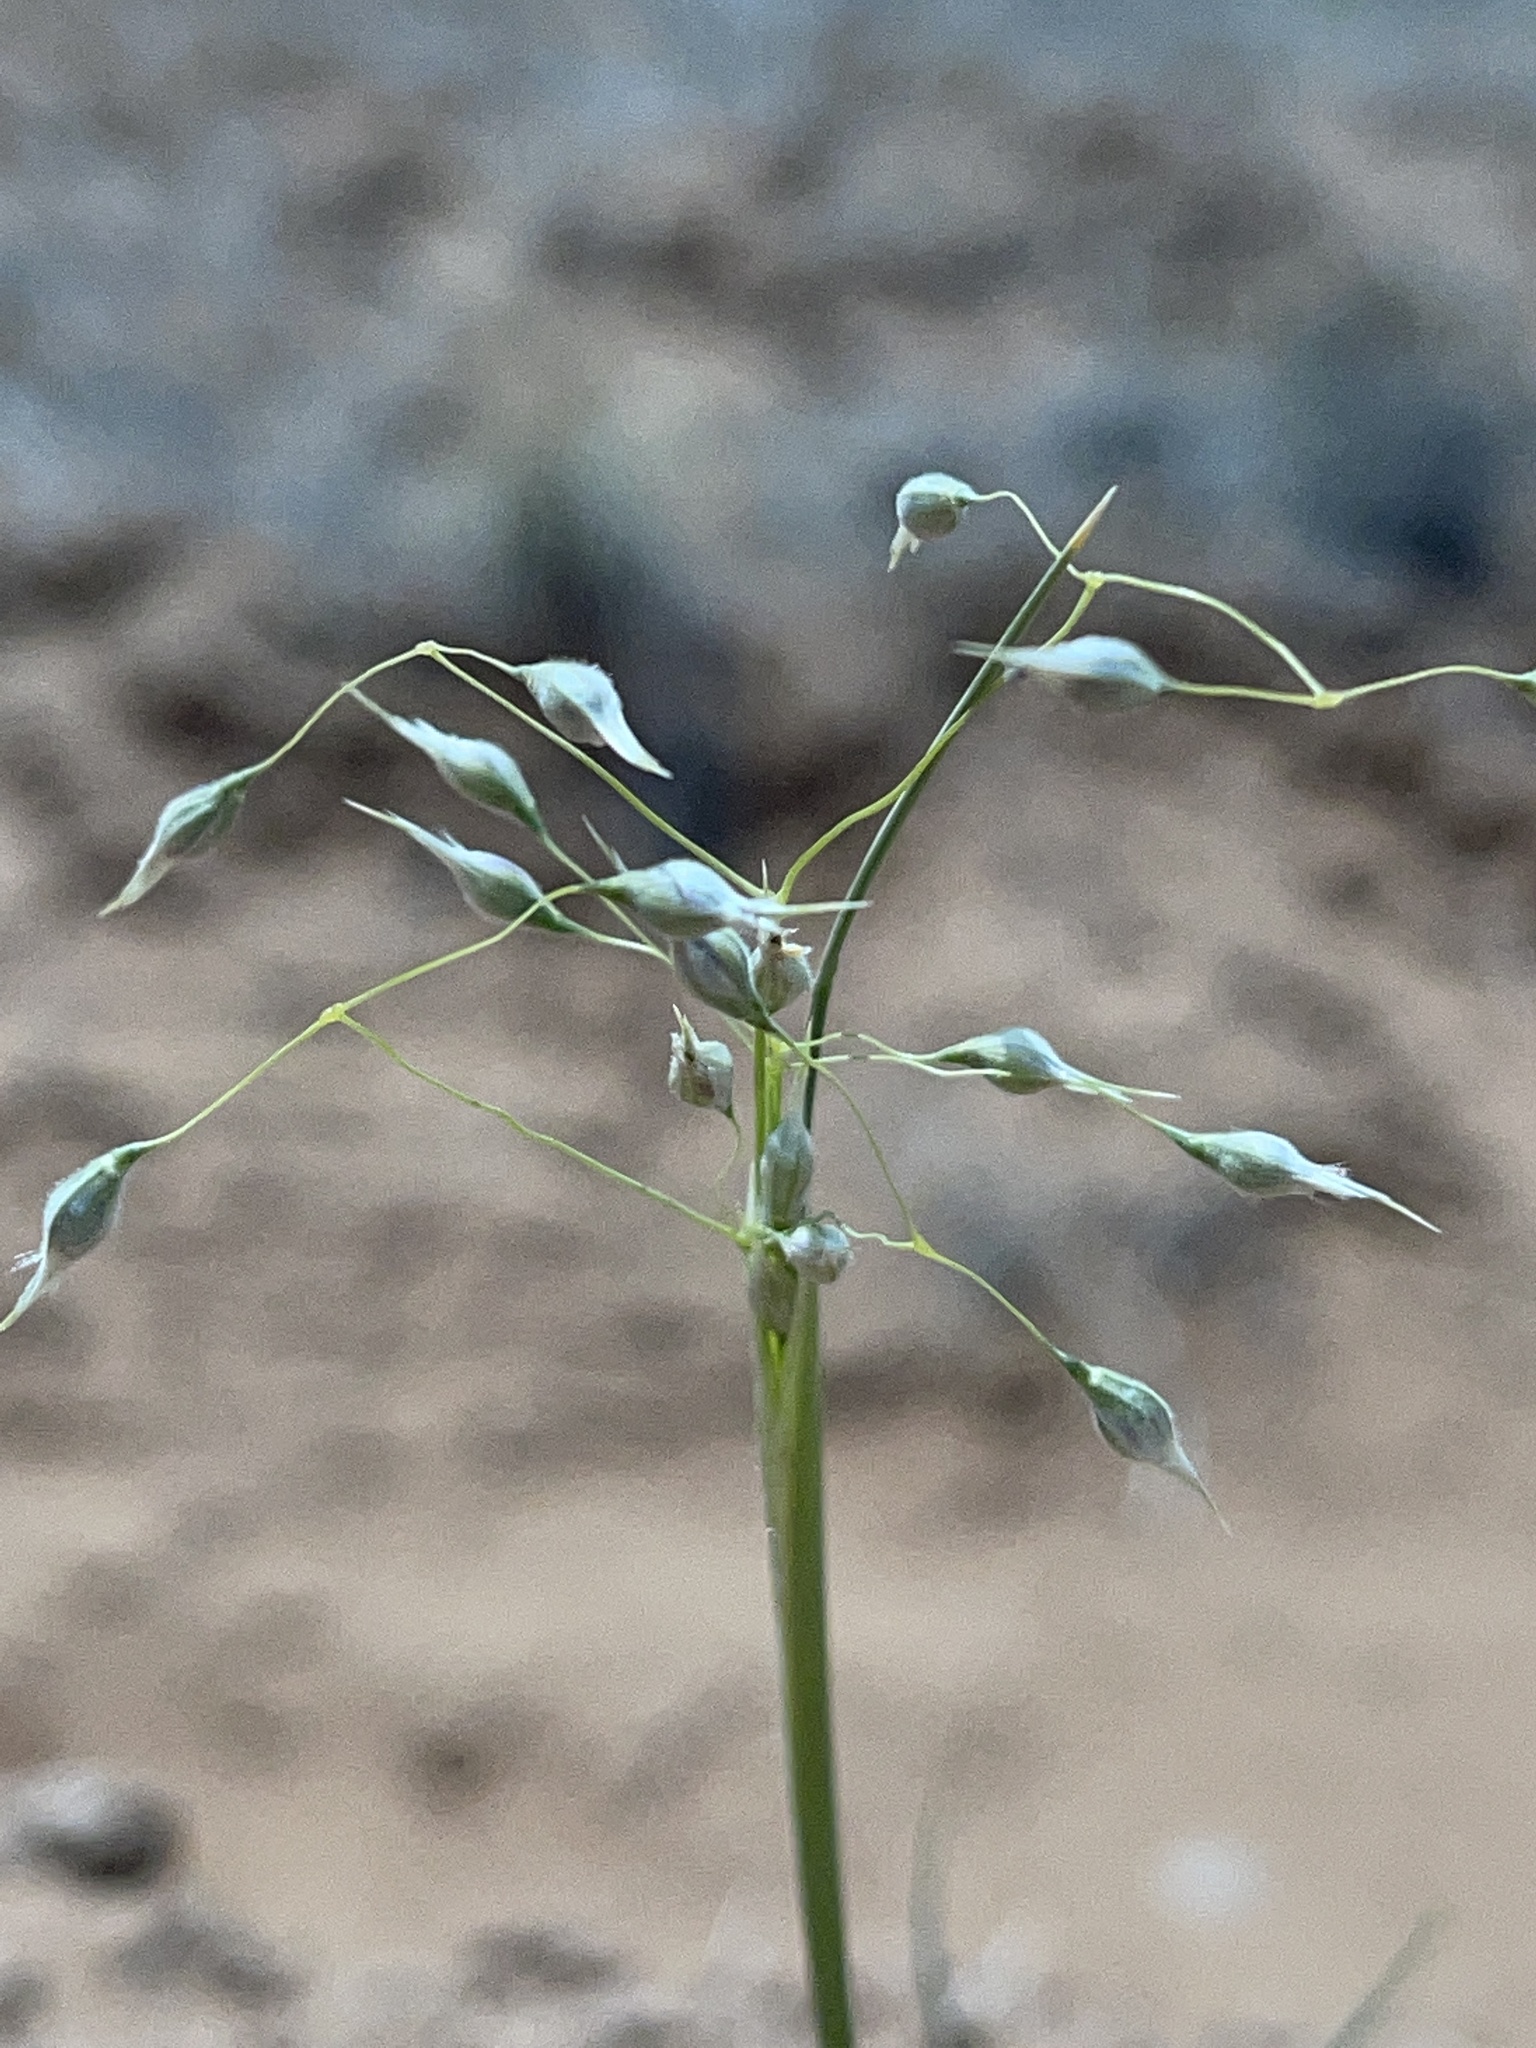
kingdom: Plantae
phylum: Tracheophyta
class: Liliopsida
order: Poales
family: Poaceae
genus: Eriocoma
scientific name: Eriocoma hymenoides
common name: Indian mountain ricegrass
